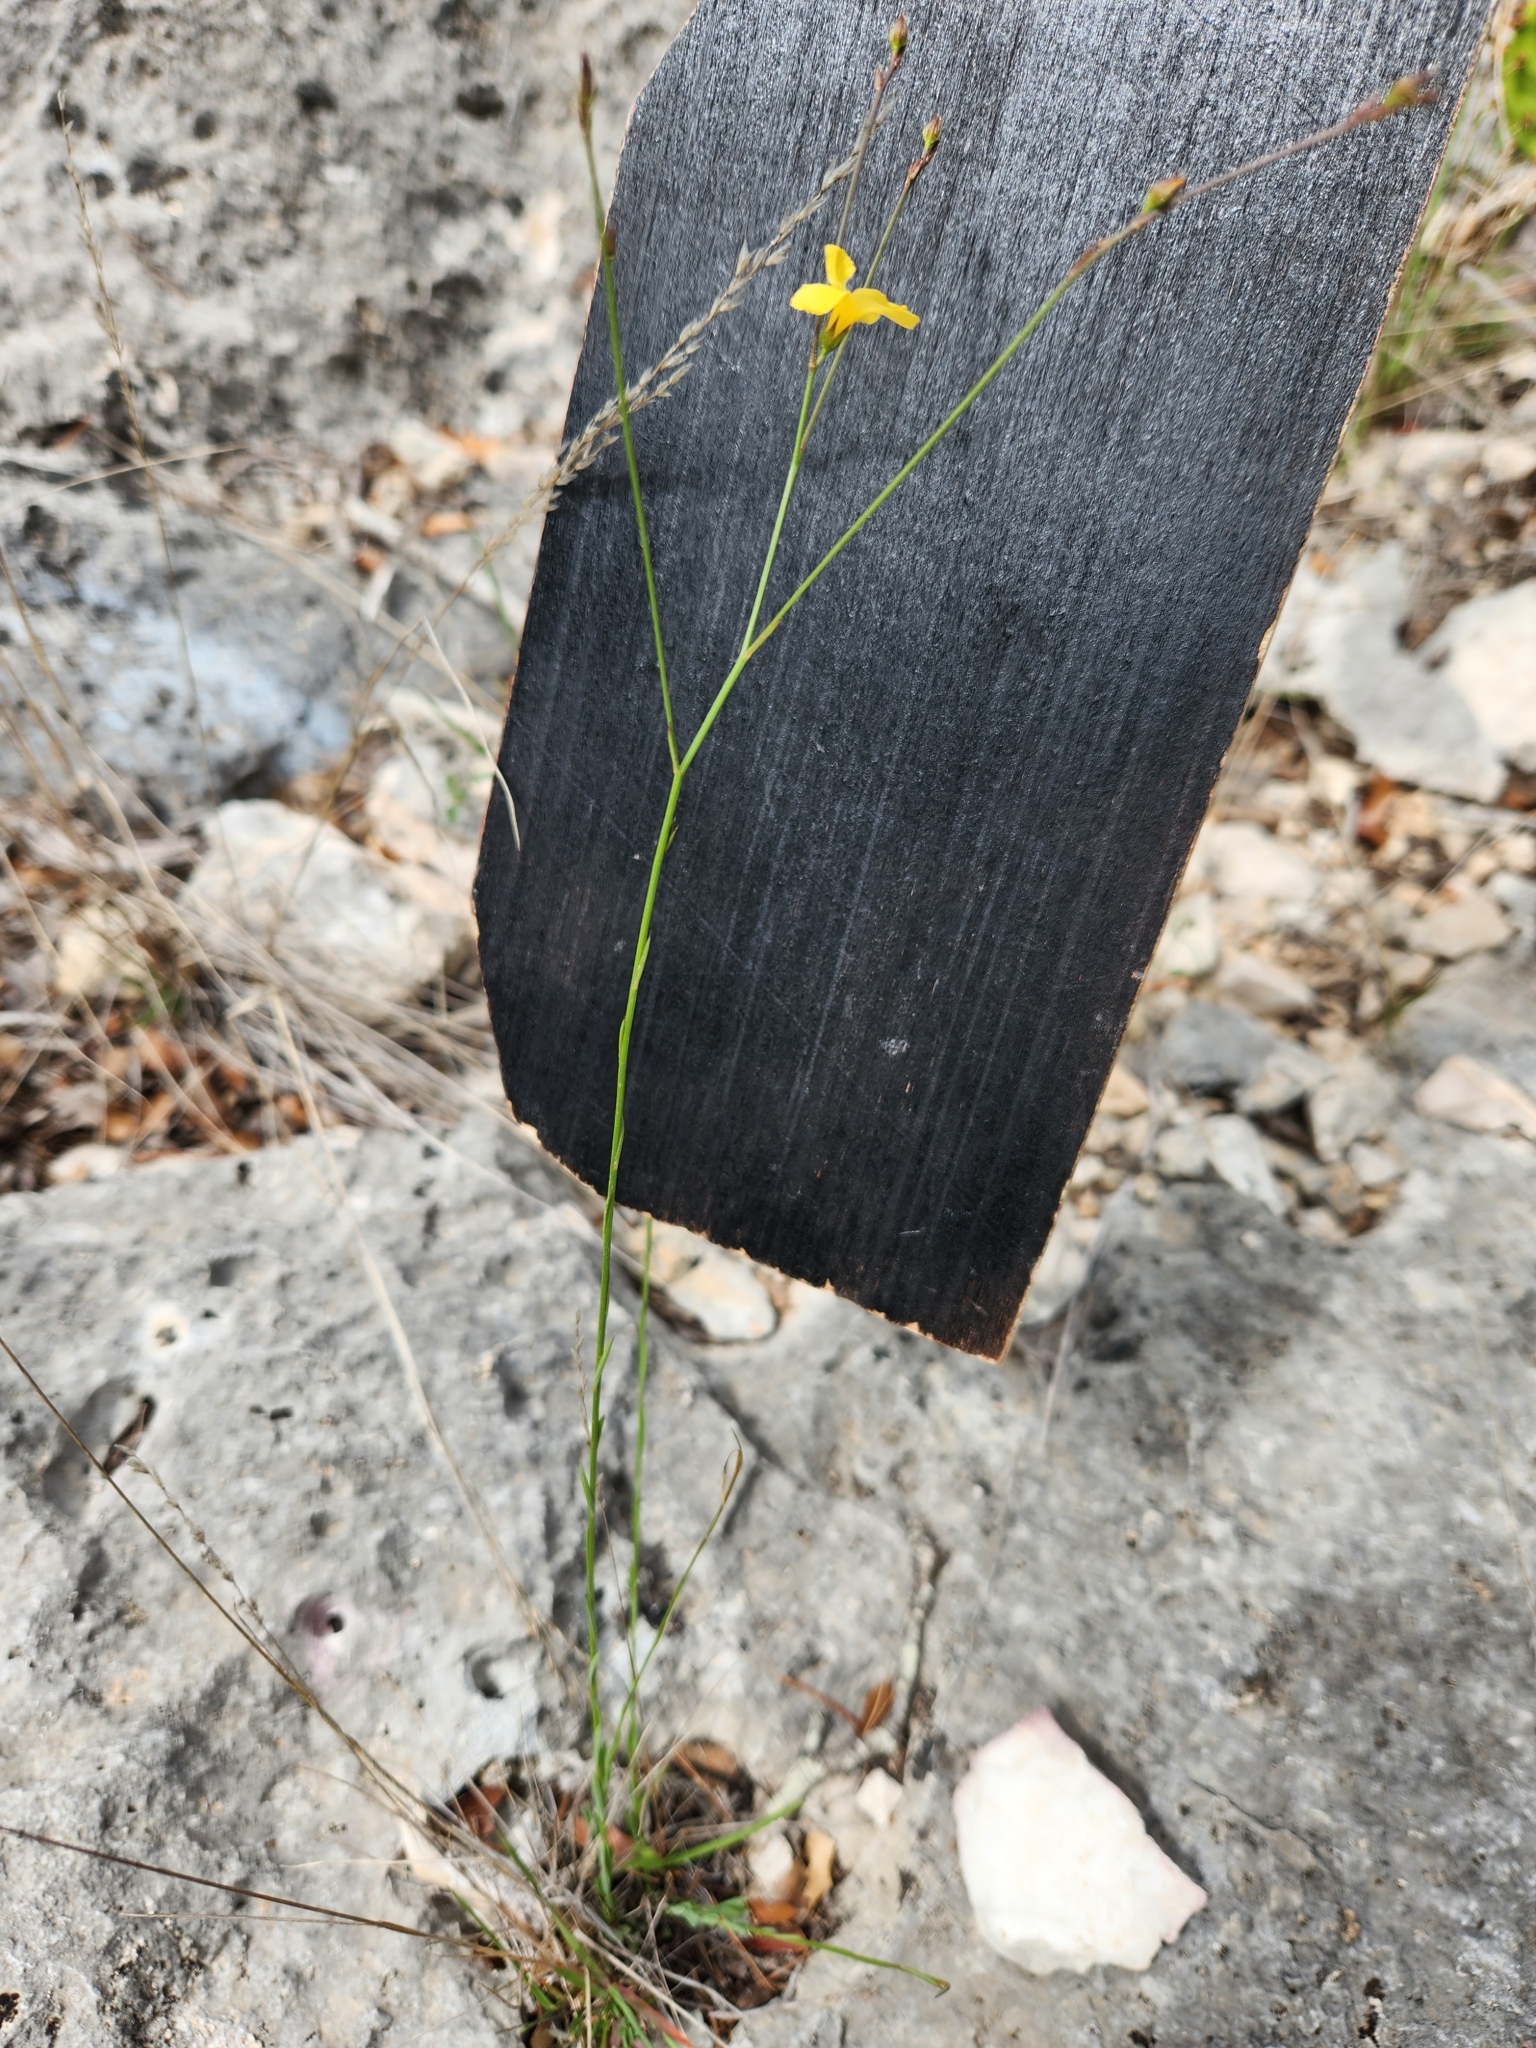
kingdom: Plantae
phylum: Tracheophyta
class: Magnoliopsida
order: Malpighiales
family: Linaceae
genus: Linum
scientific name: Linum rupestre
